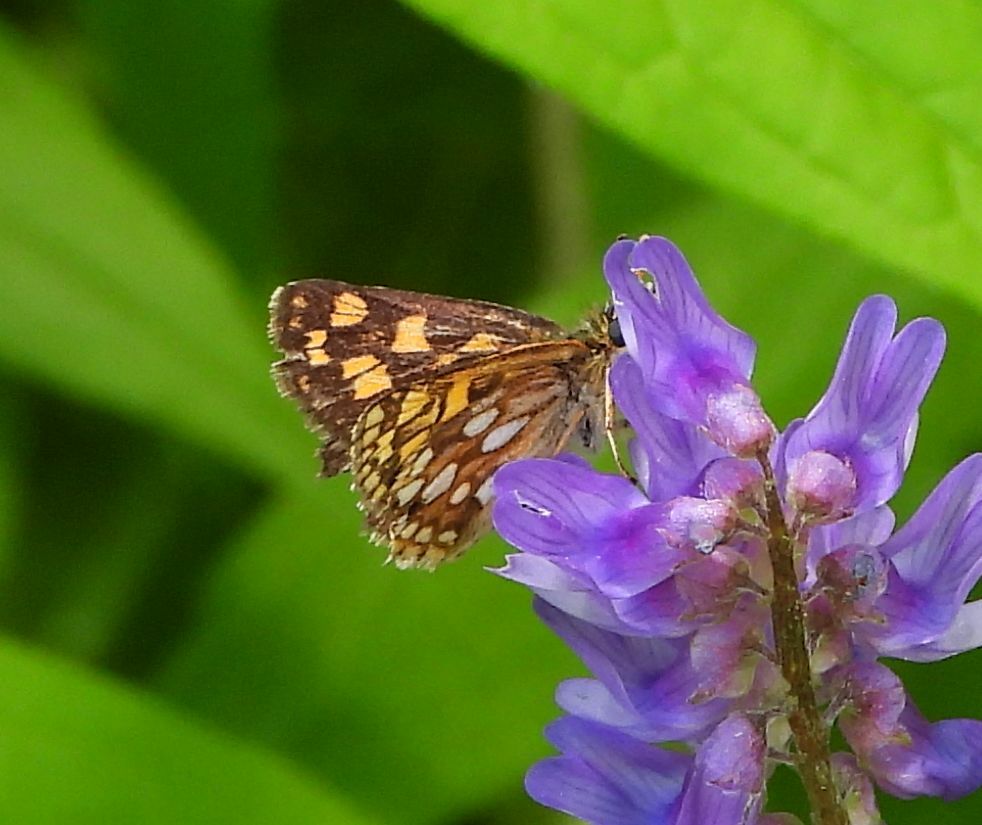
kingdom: Animalia
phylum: Arthropoda
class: Insecta
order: Lepidoptera
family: Hesperiidae
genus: Carterocephalus
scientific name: Carterocephalus mandan
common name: Arctic skipperling
